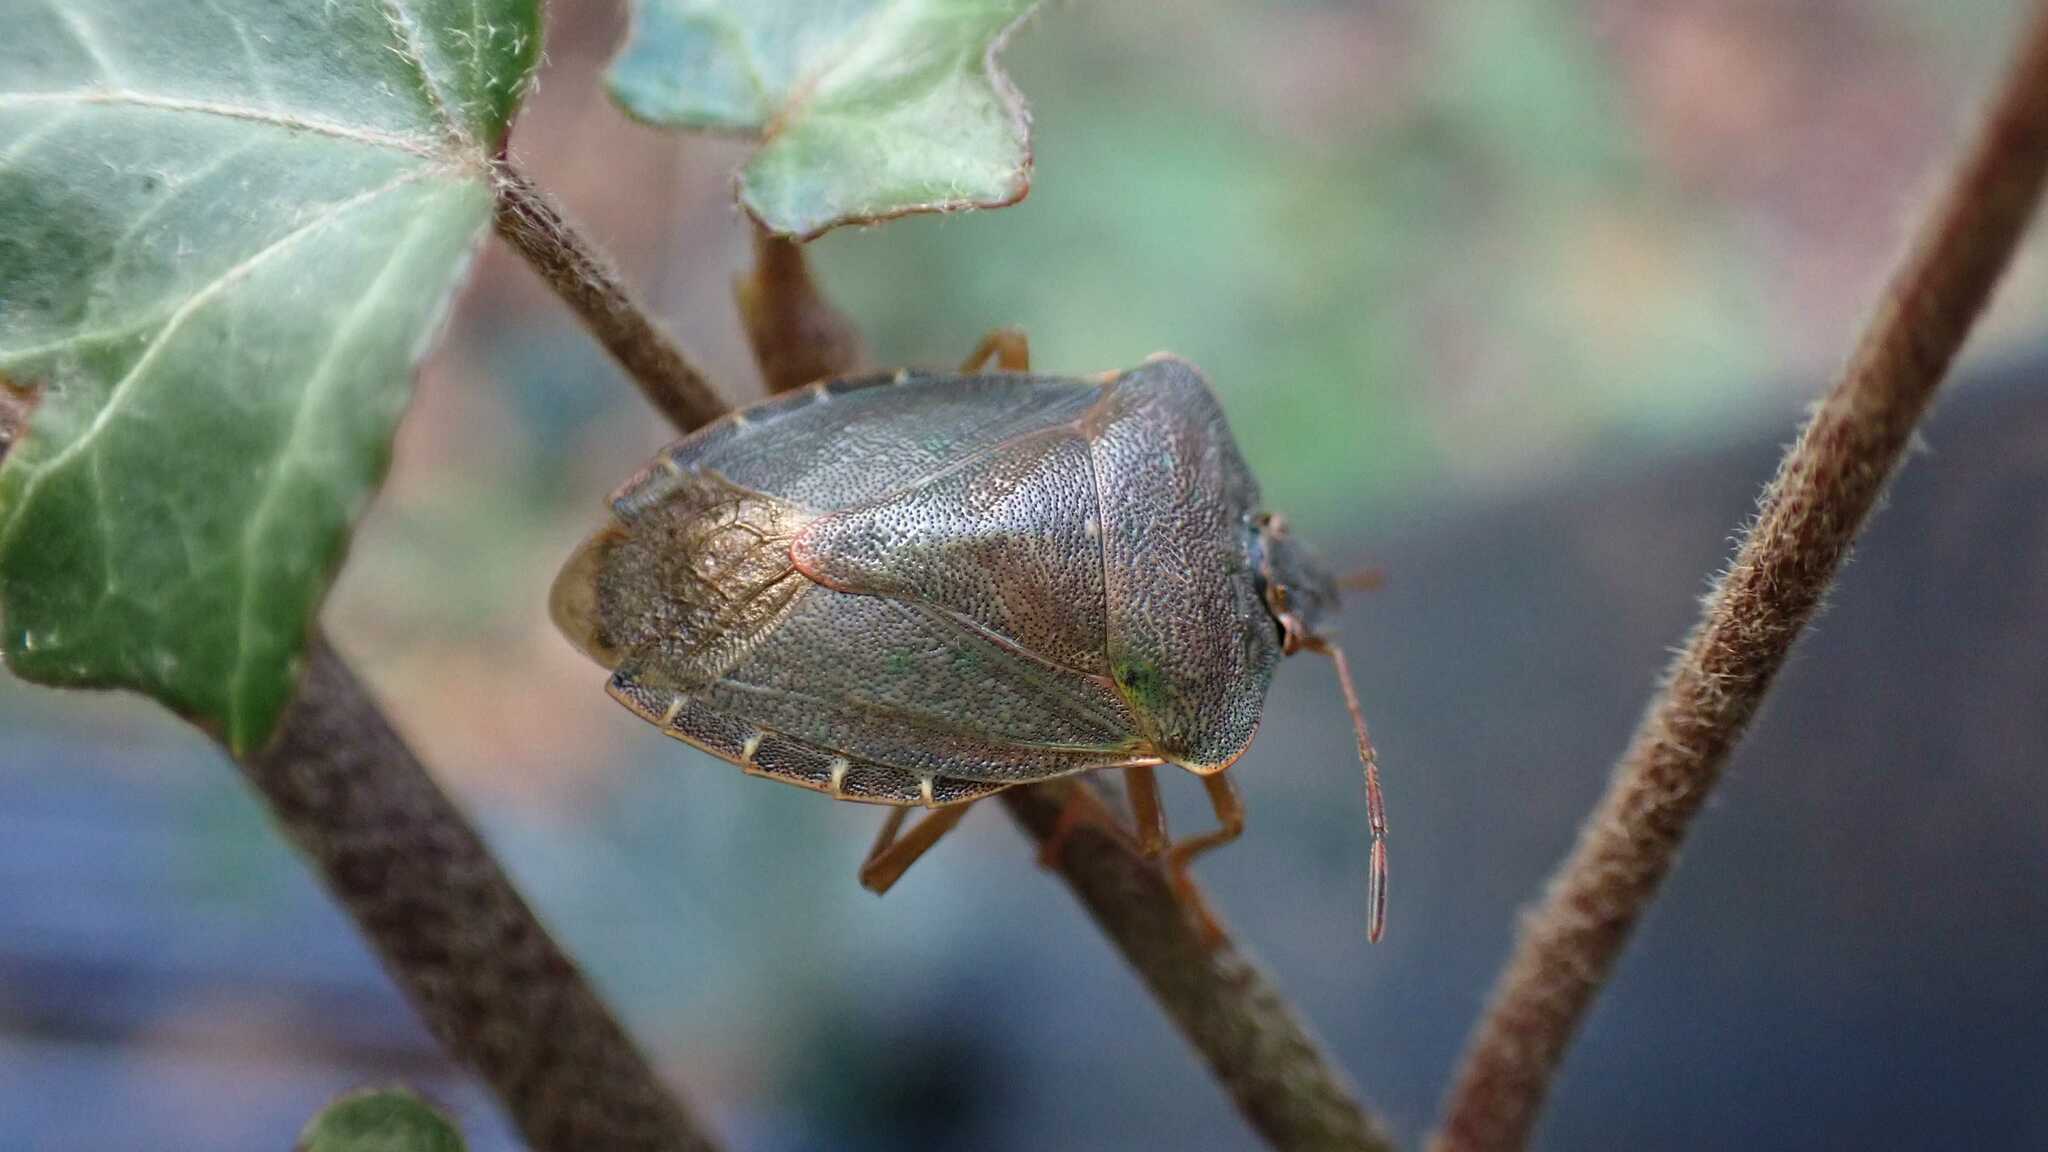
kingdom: Animalia
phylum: Arthropoda
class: Insecta
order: Hemiptera
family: Pentatomidae
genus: Palomena
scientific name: Palomena prasina
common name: Green shieldbug
